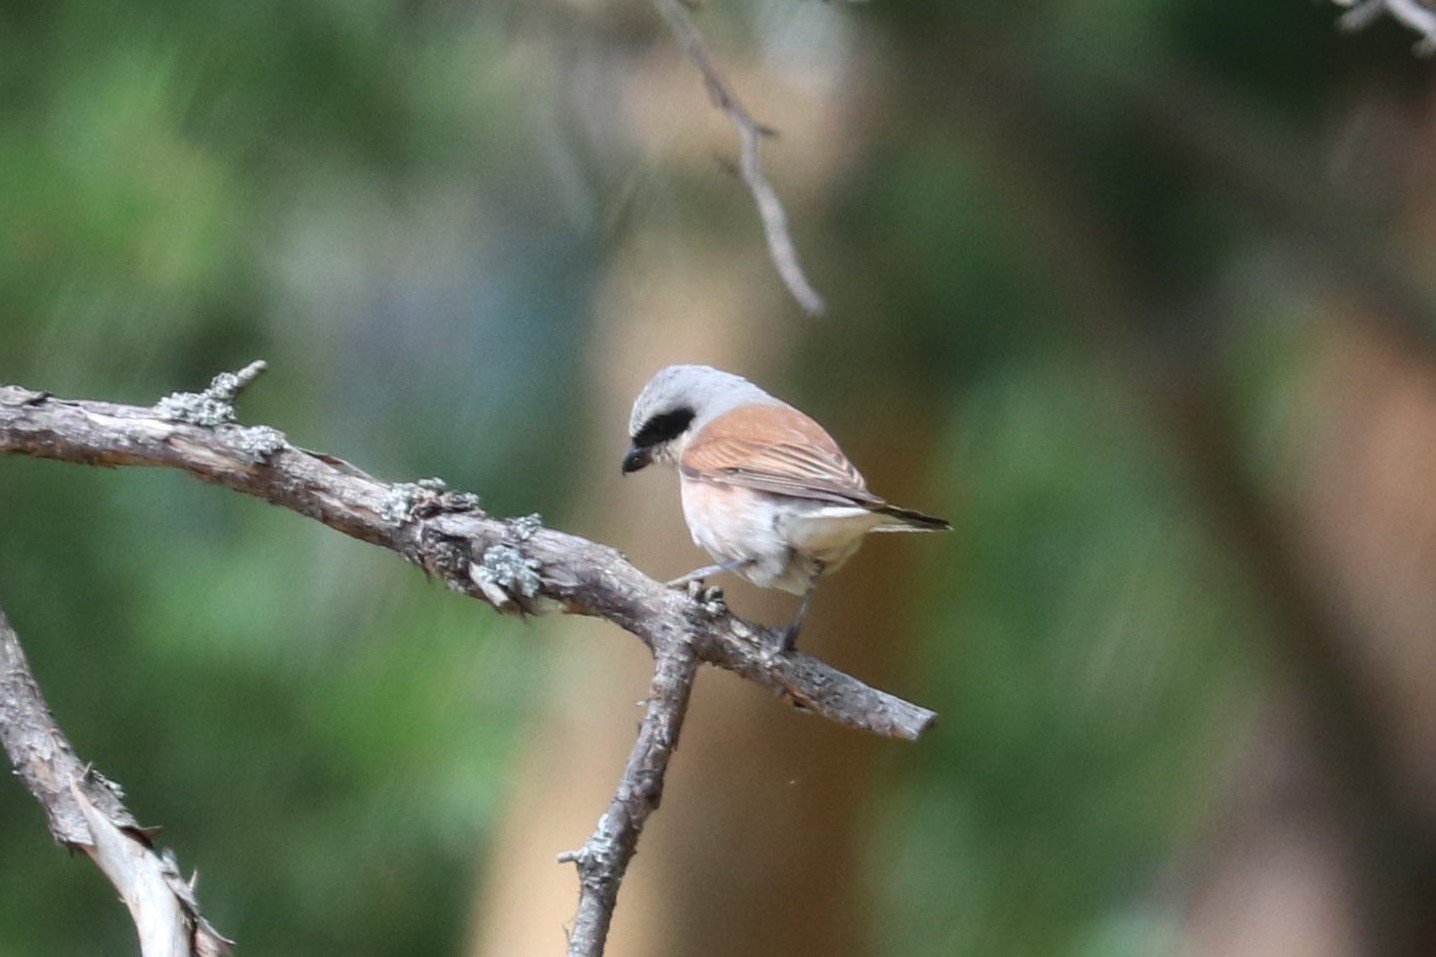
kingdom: Animalia
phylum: Chordata
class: Aves
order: Passeriformes
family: Laniidae
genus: Lanius
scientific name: Lanius collurio
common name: Red-backed shrike
